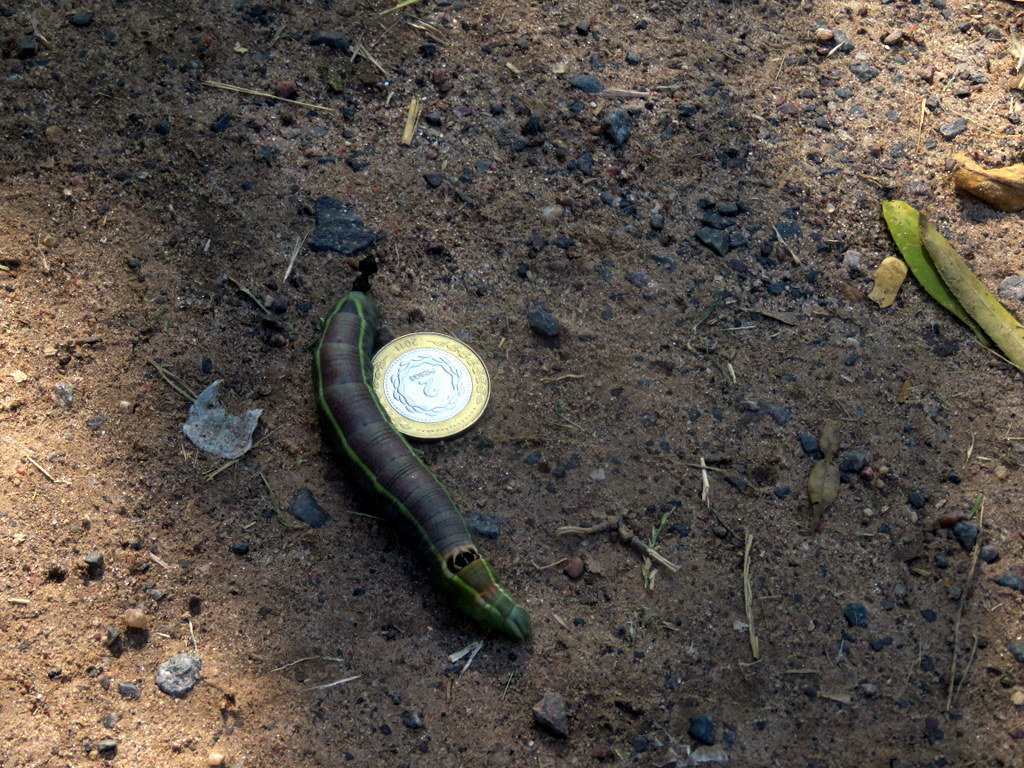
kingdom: Animalia
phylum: Arthropoda
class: Insecta
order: Lepidoptera
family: Sphingidae
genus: Erinnyis
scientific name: Erinnyis ello
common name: Ello sphinx
